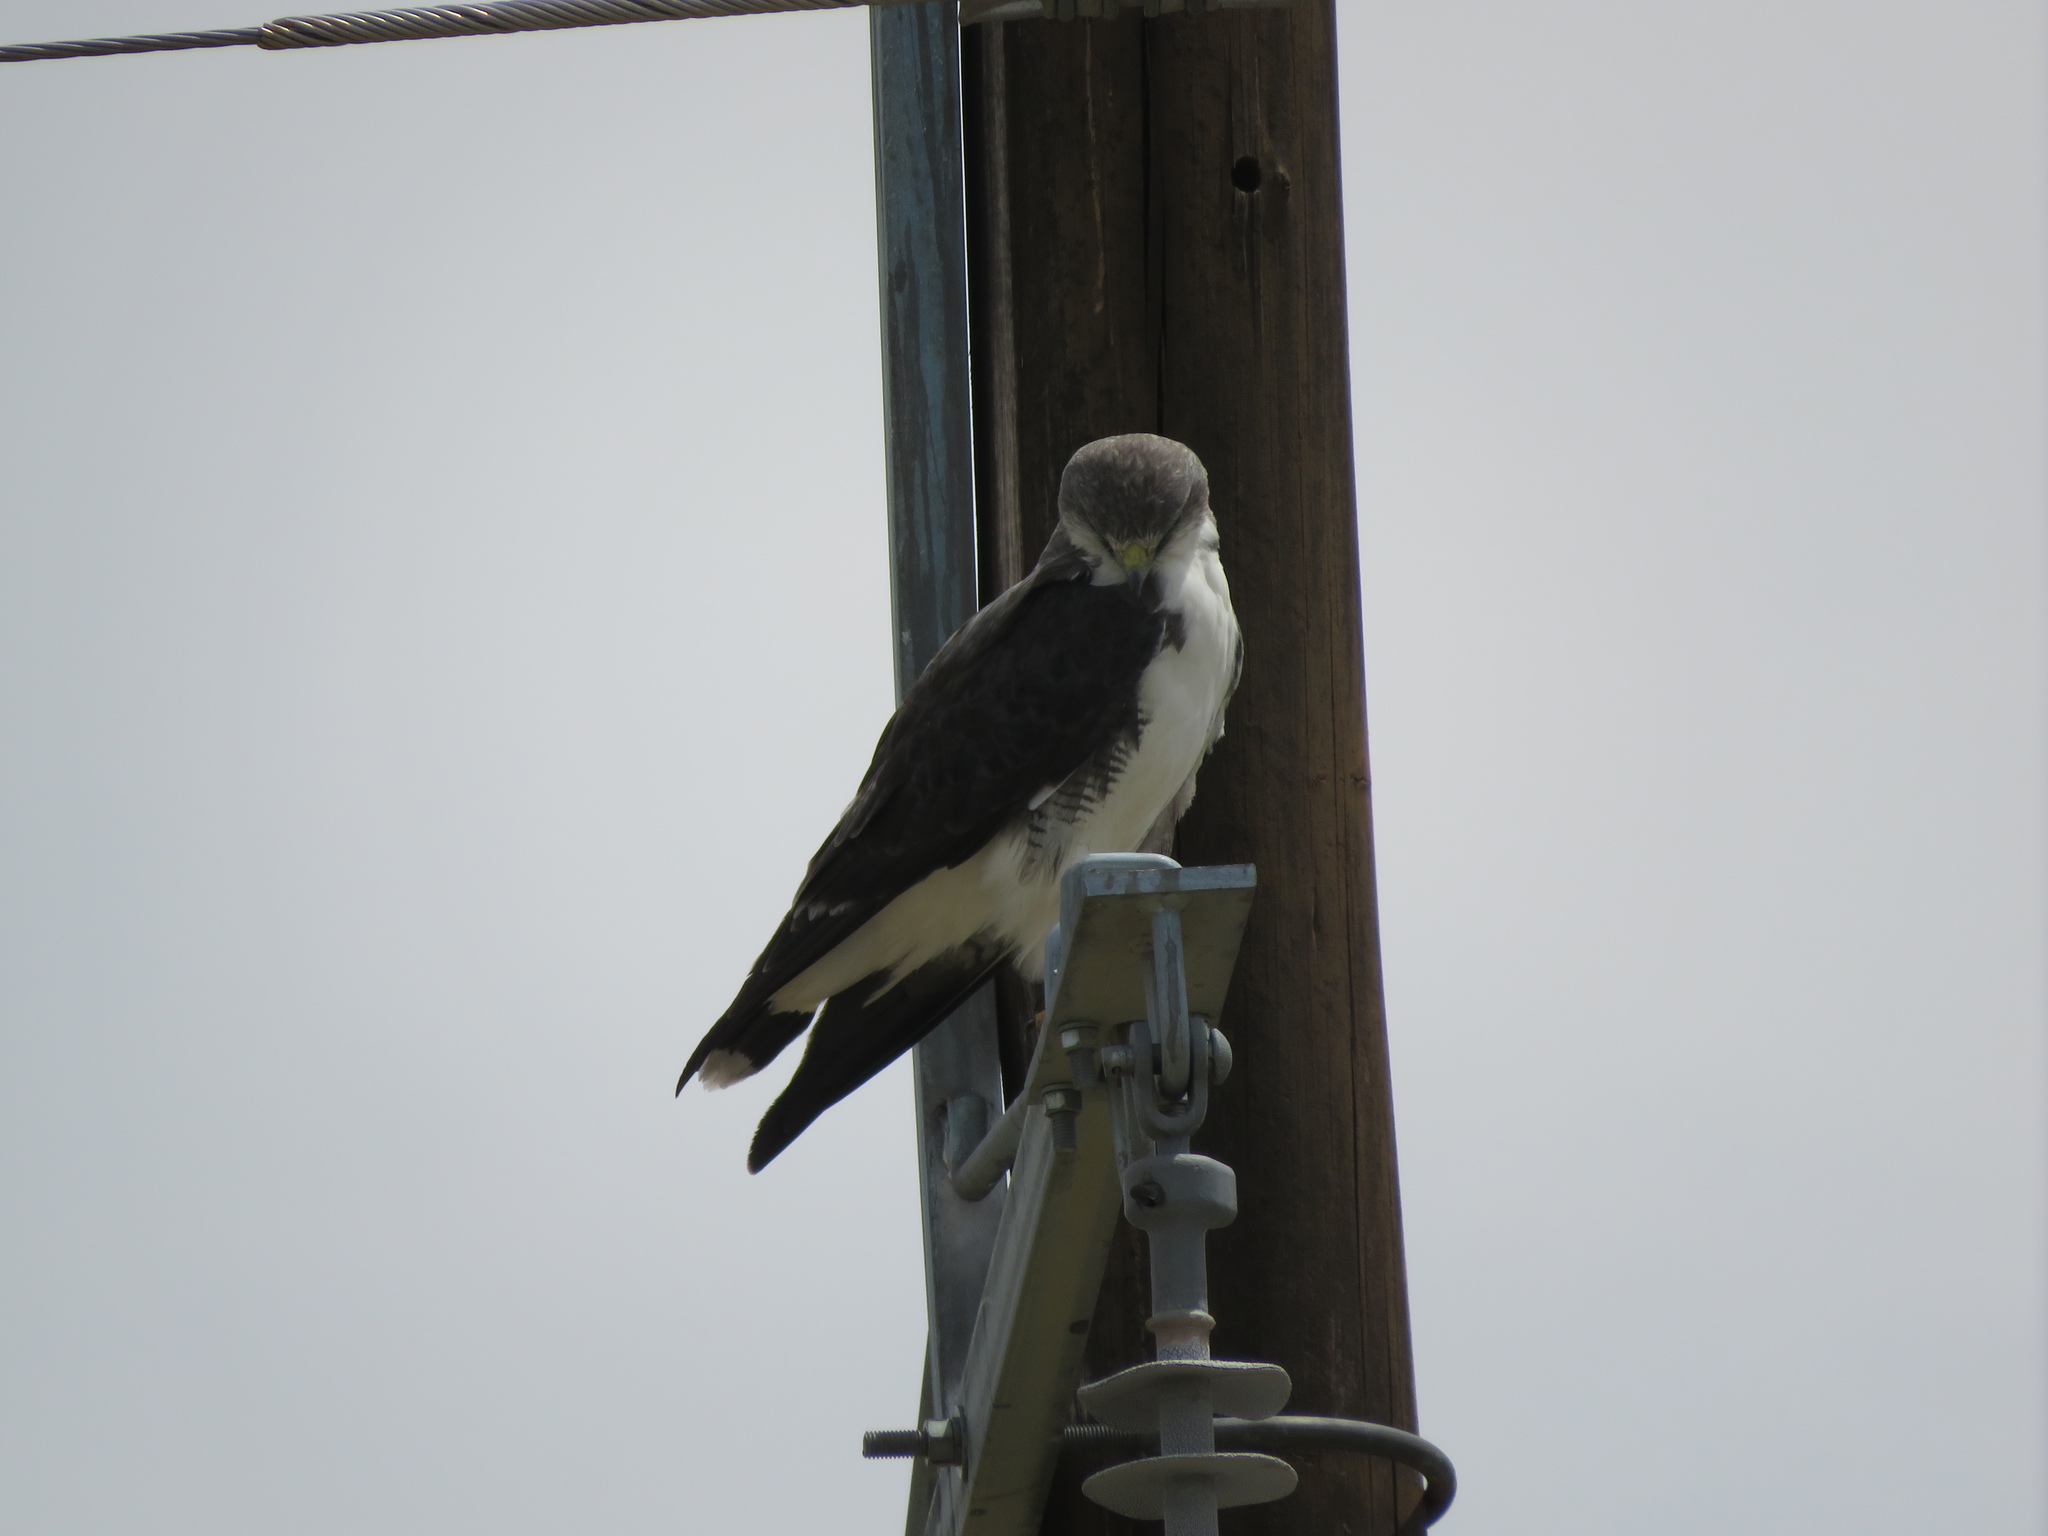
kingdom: Animalia
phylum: Chordata
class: Aves
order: Accipitriformes
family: Accipitridae
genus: Buteo
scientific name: Buteo polyosoma
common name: Variable hawk
